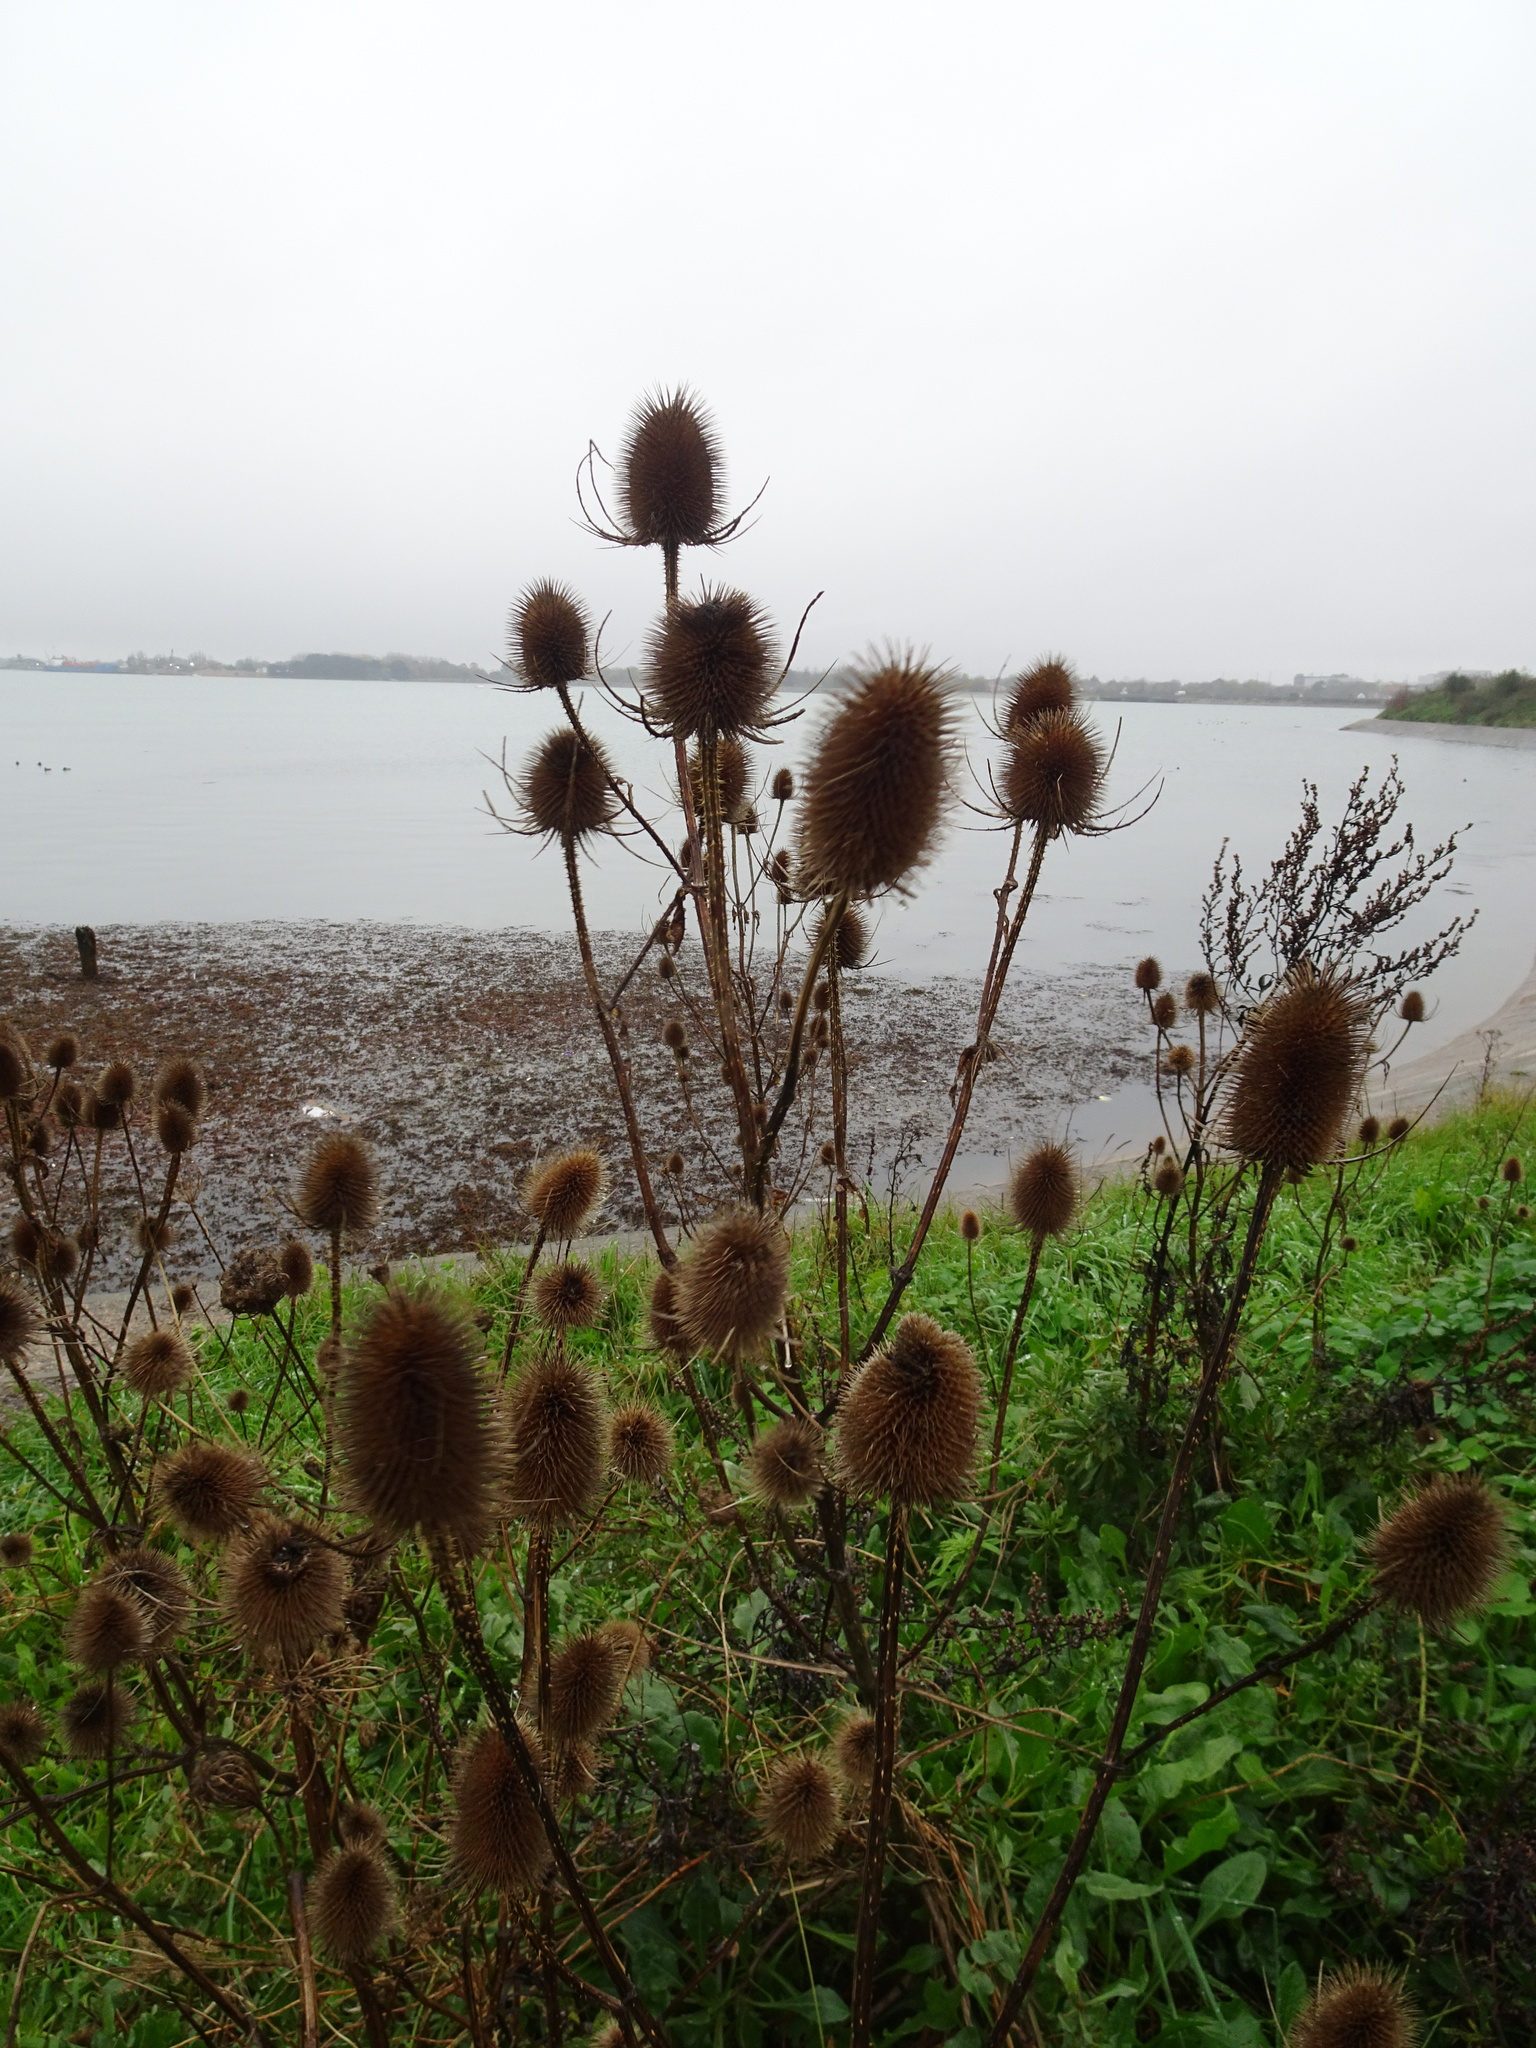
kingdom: Plantae
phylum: Tracheophyta
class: Magnoliopsida
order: Dipsacales
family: Caprifoliaceae
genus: Dipsacus
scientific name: Dipsacus fullonum
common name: Teasel
